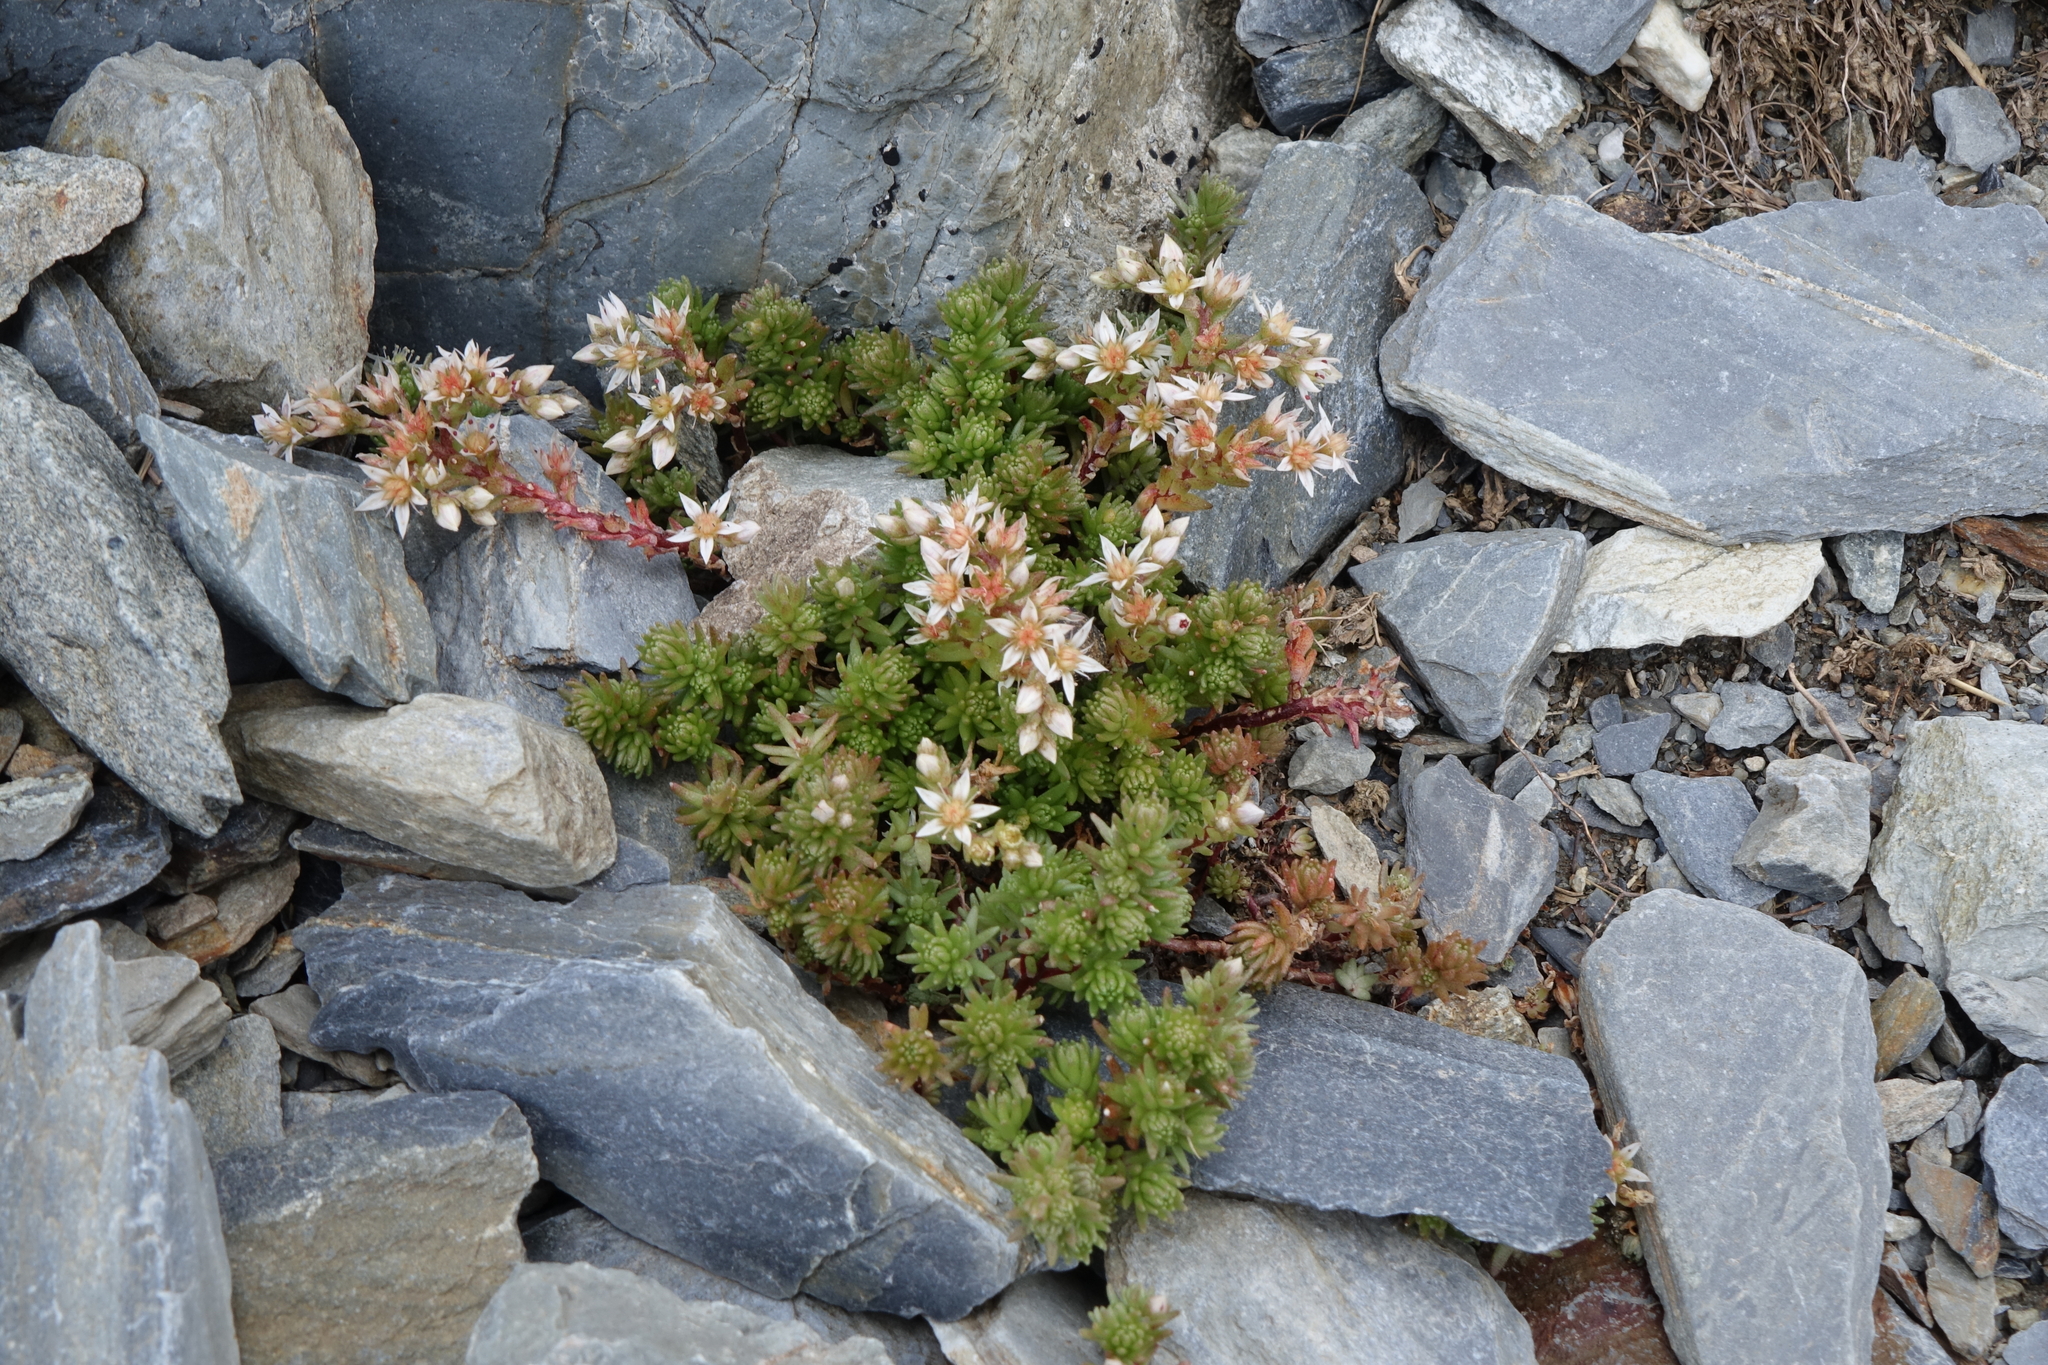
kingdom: Plantae
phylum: Tracheophyta
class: Magnoliopsida
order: Saxifragales
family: Crassulaceae
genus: Sedum
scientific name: Sedum gracile
